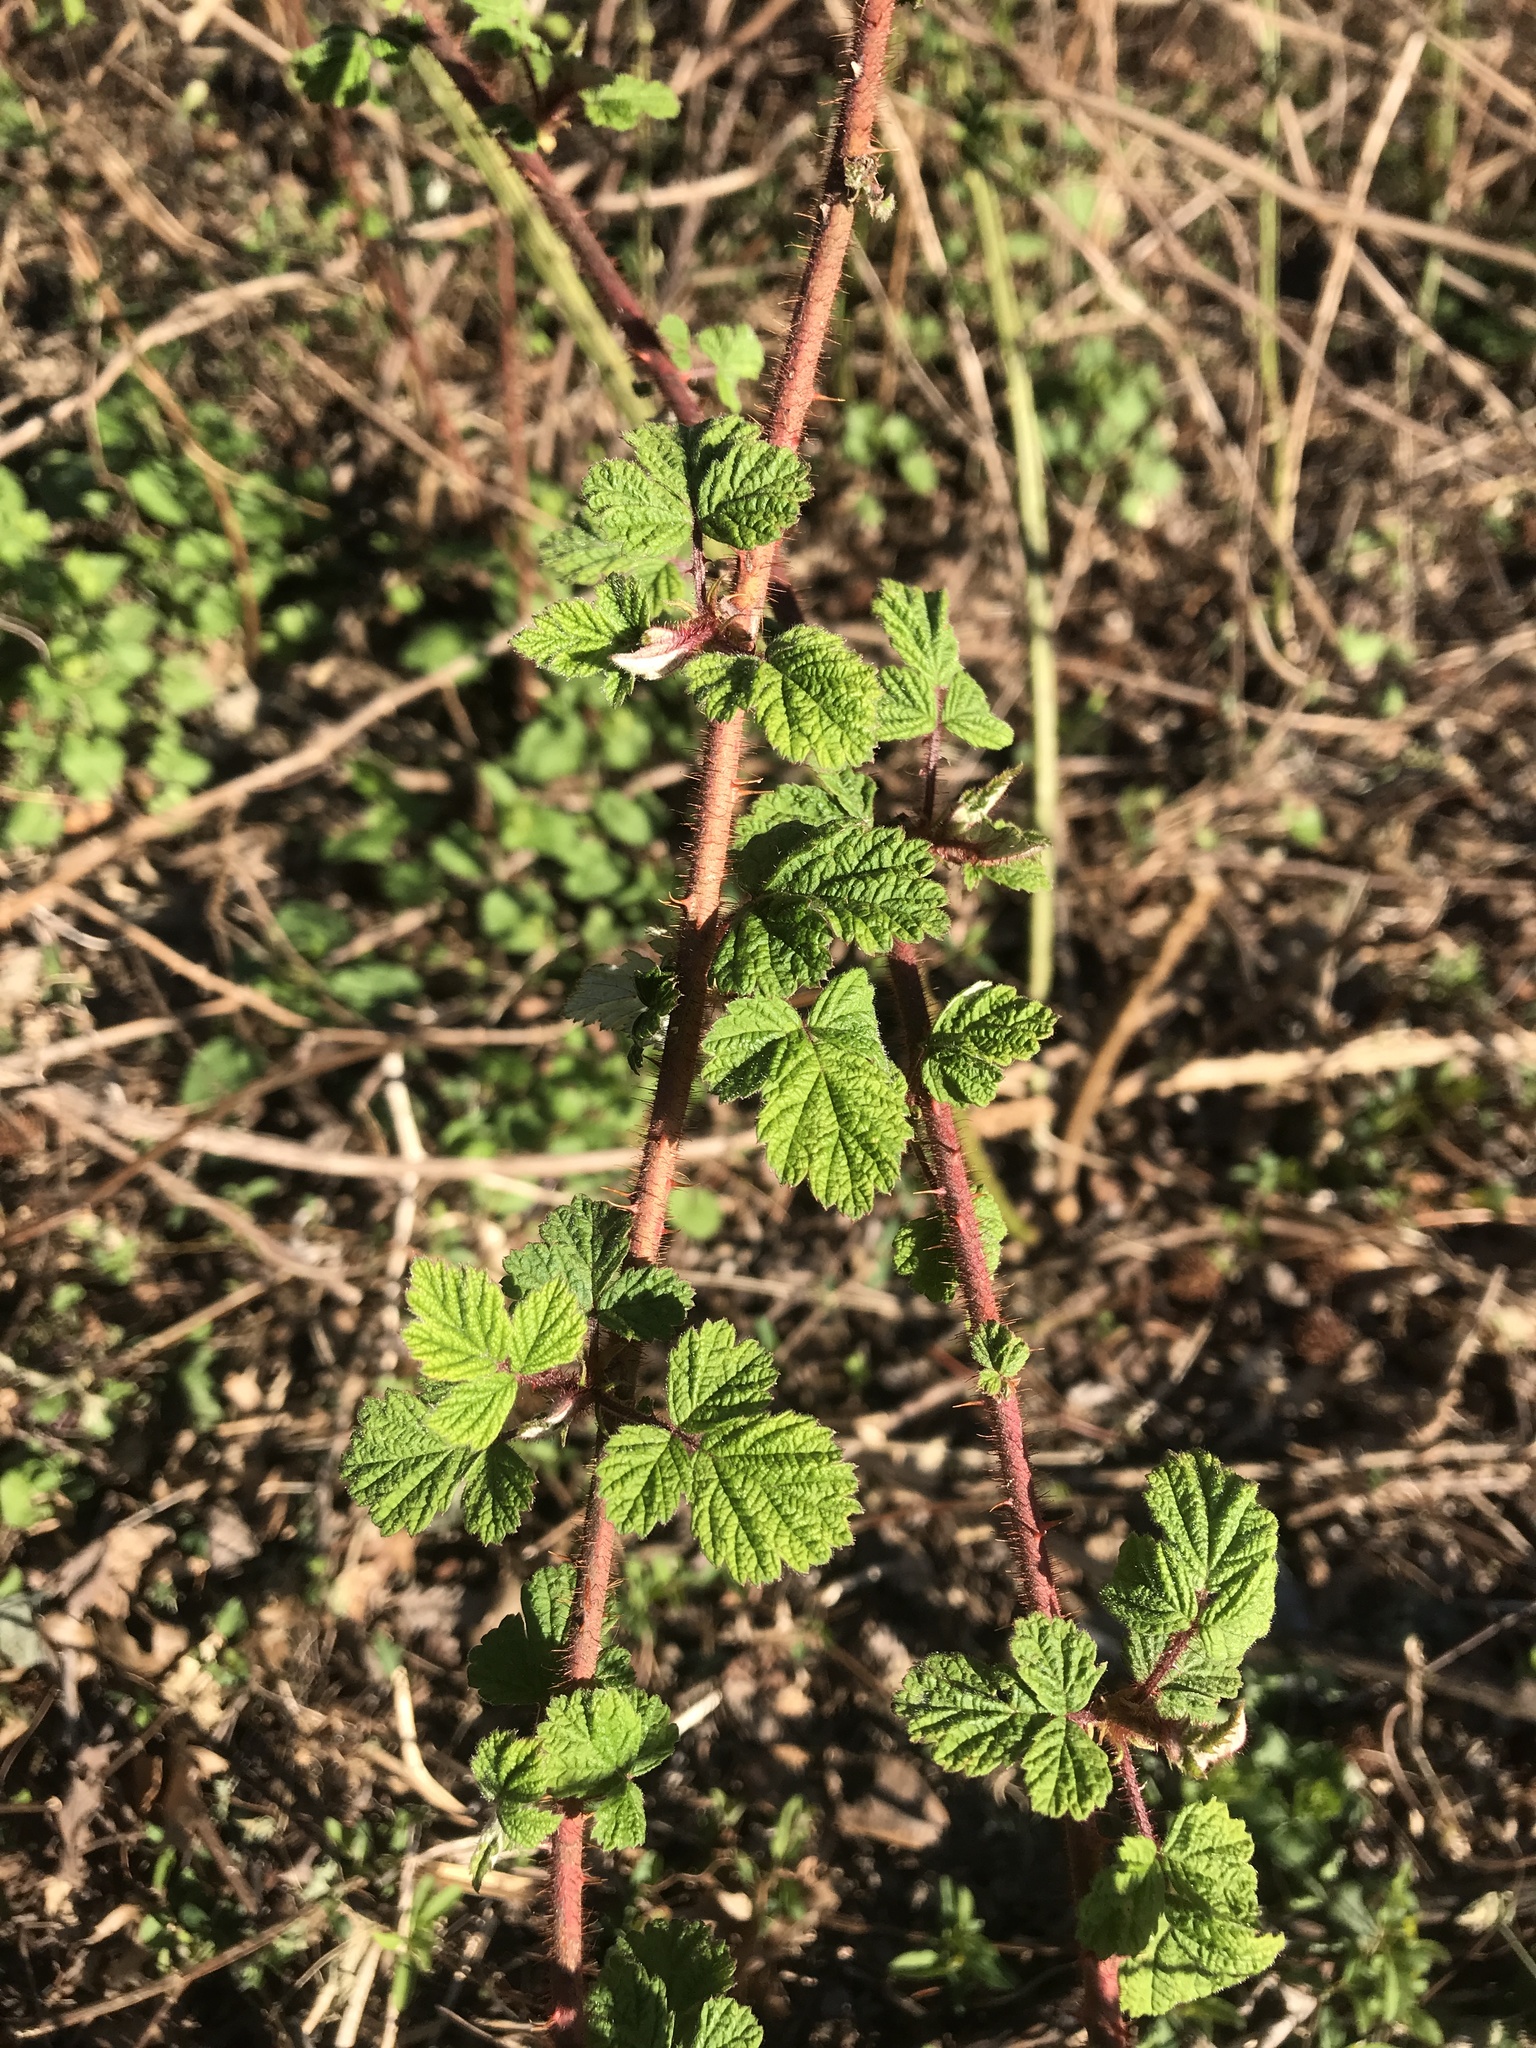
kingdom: Plantae
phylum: Tracheophyta
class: Magnoliopsida
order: Rosales
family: Rosaceae
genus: Rubus
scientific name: Rubus phoenicolasius
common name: Japanese wineberry
